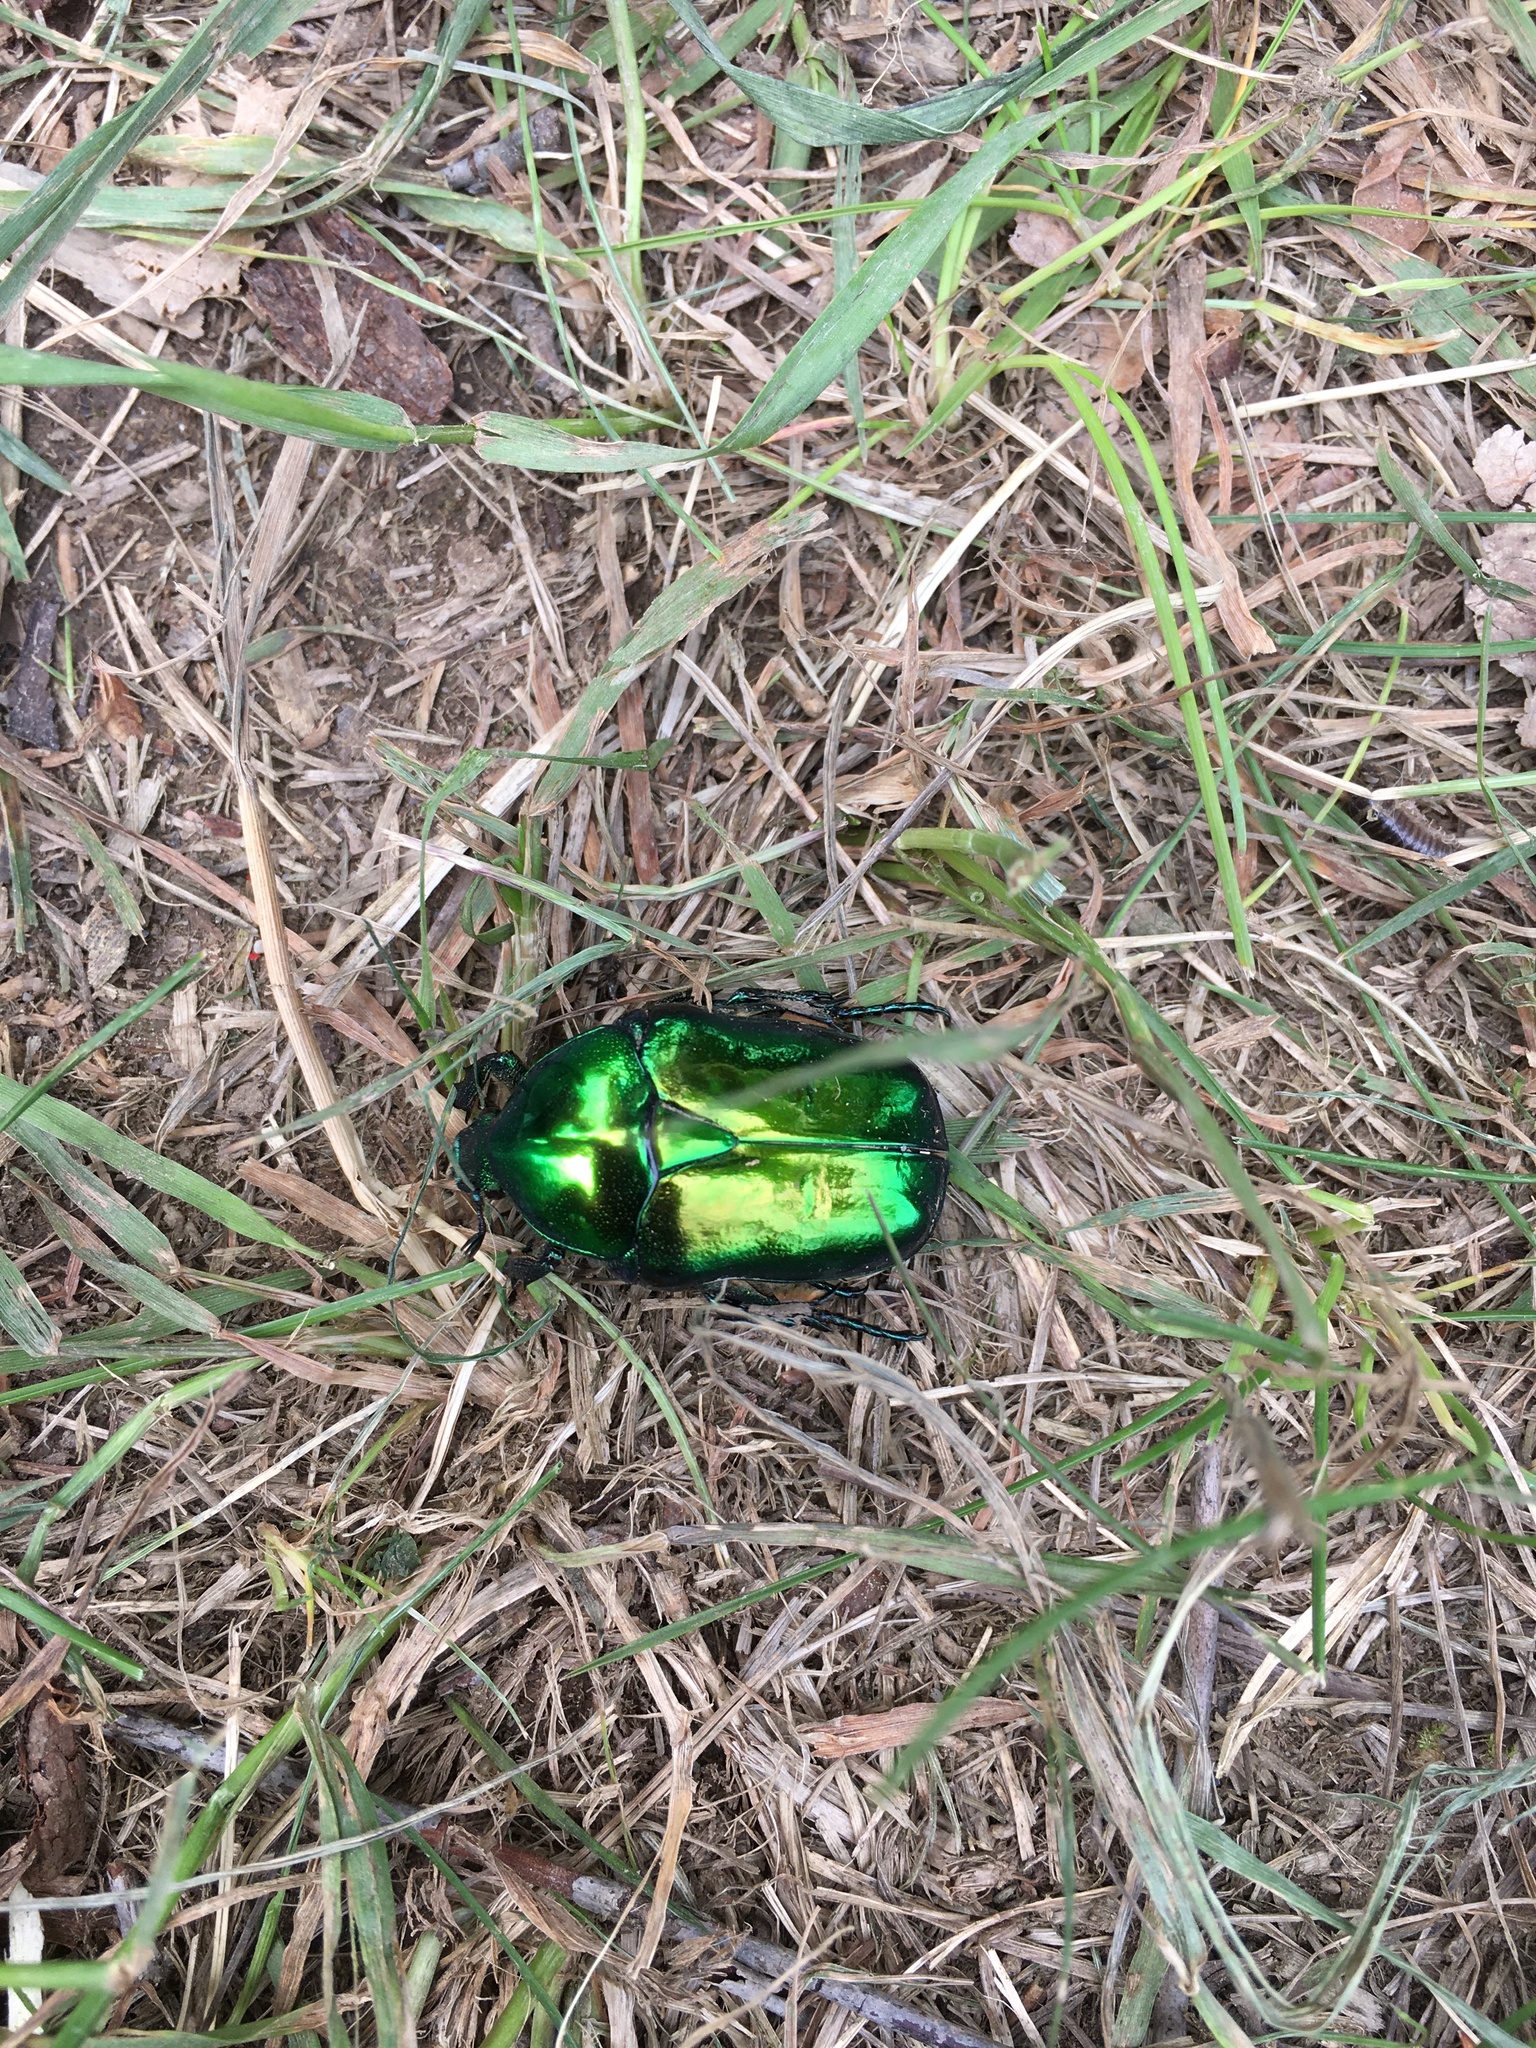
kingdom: Animalia
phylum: Arthropoda
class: Insecta
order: Coleoptera
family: Scarabaeidae
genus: Protaetia
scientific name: Protaetia speciosissima
